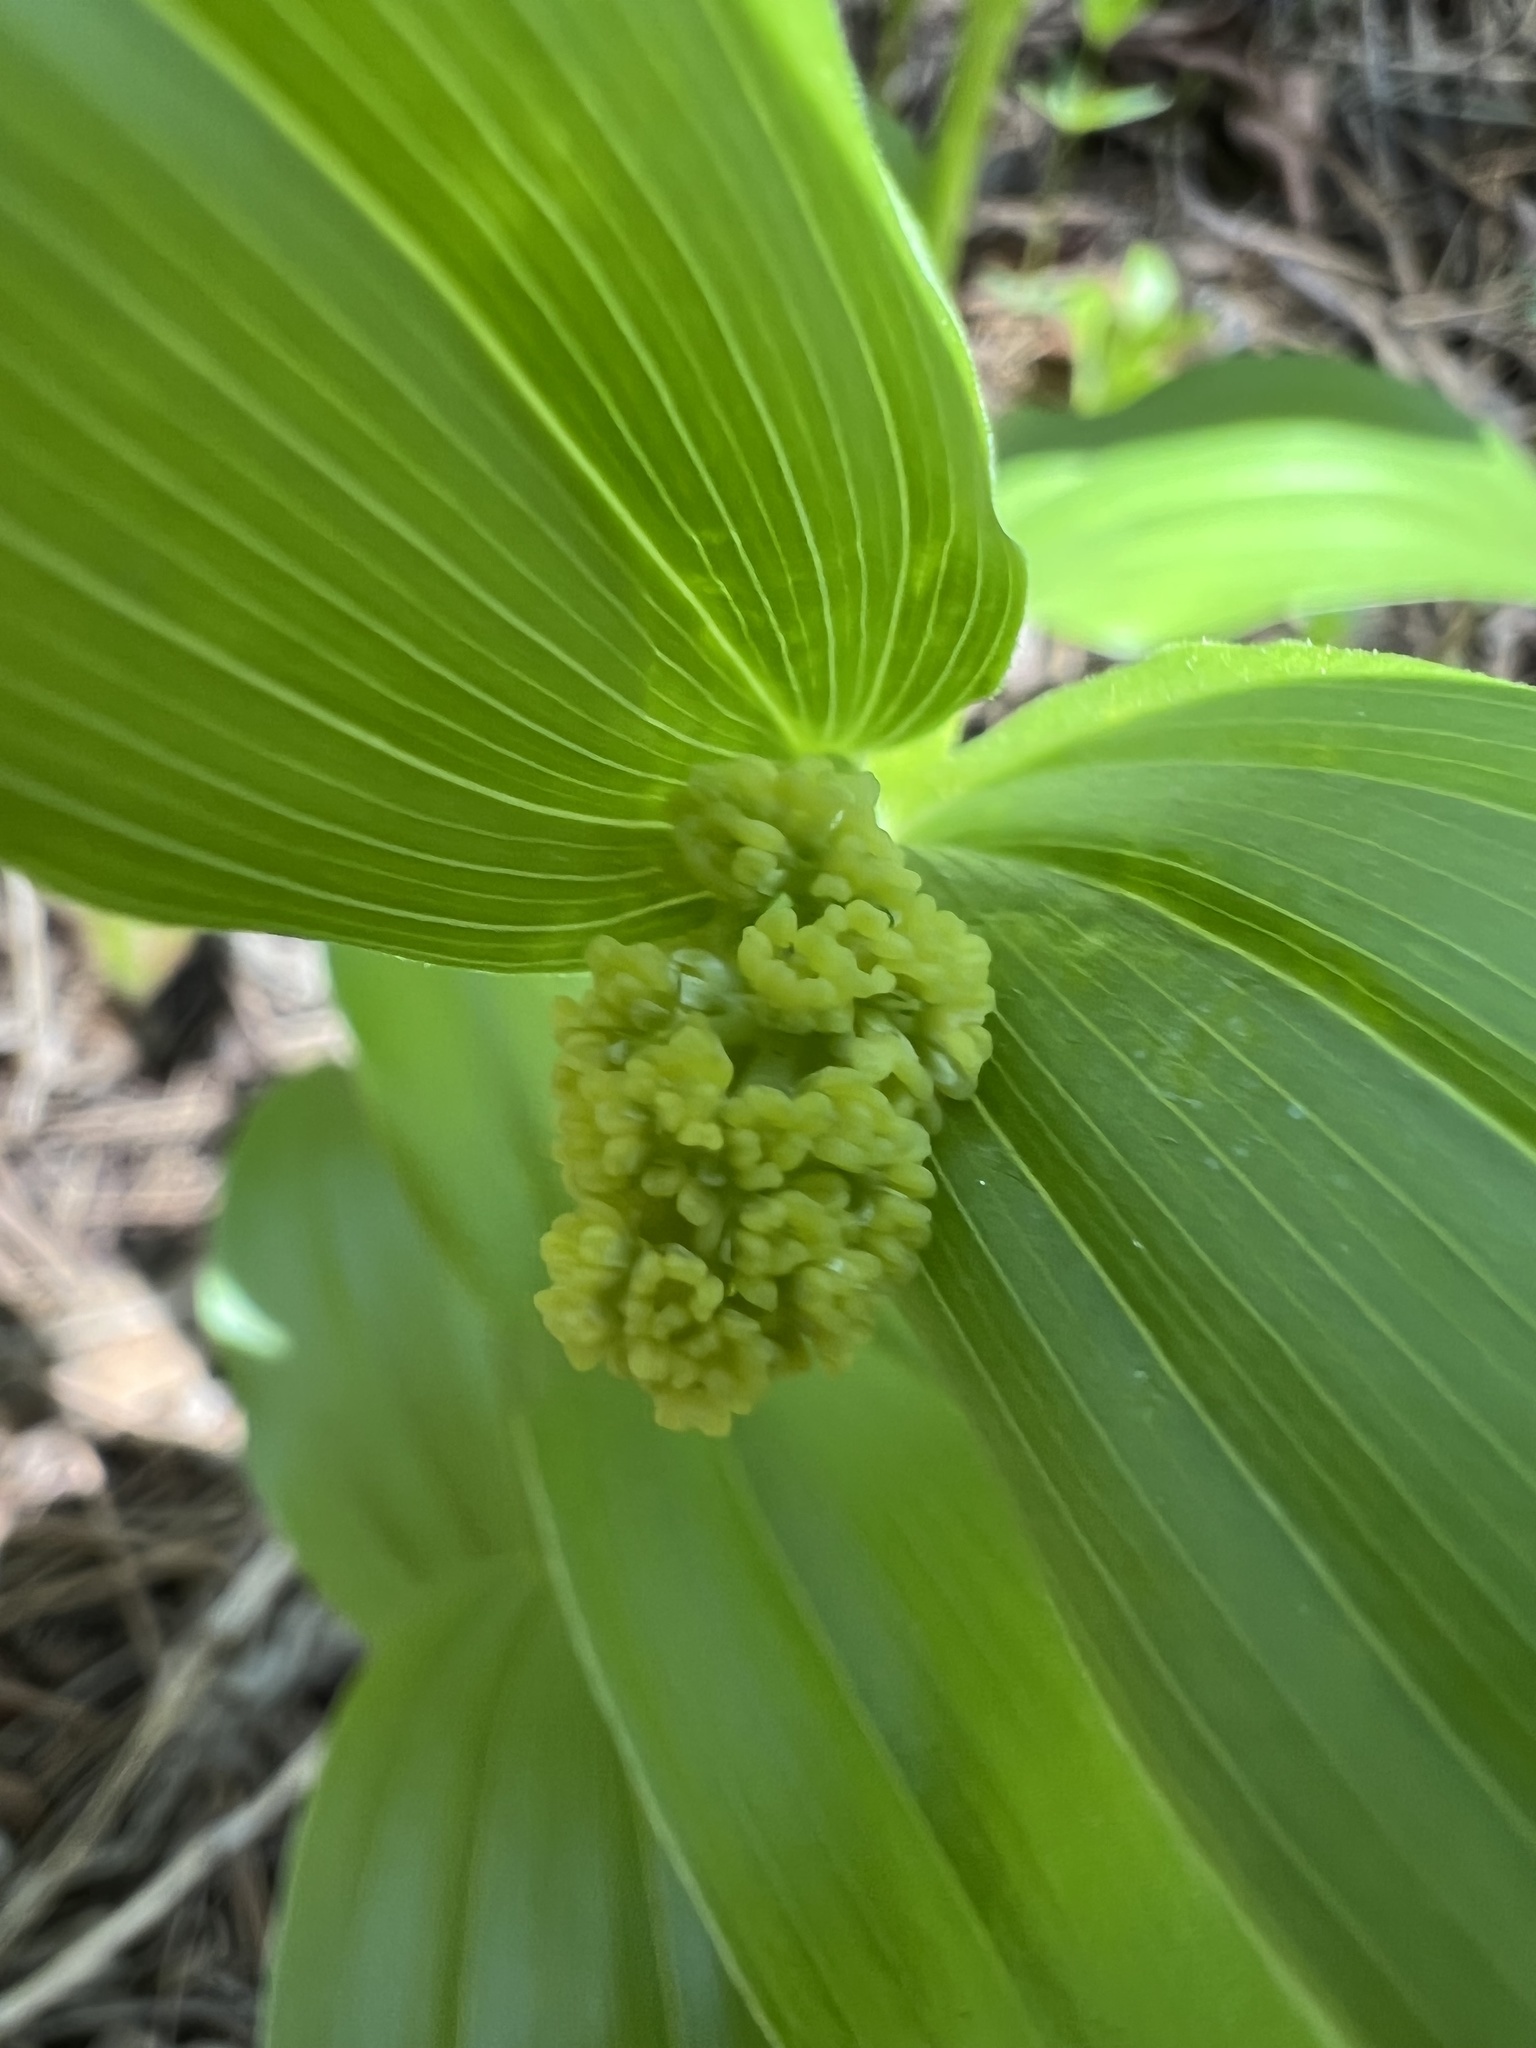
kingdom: Plantae
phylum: Tracheophyta
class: Liliopsida
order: Asparagales
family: Asparagaceae
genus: Maianthemum
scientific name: Maianthemum racemosum
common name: False spikenard
